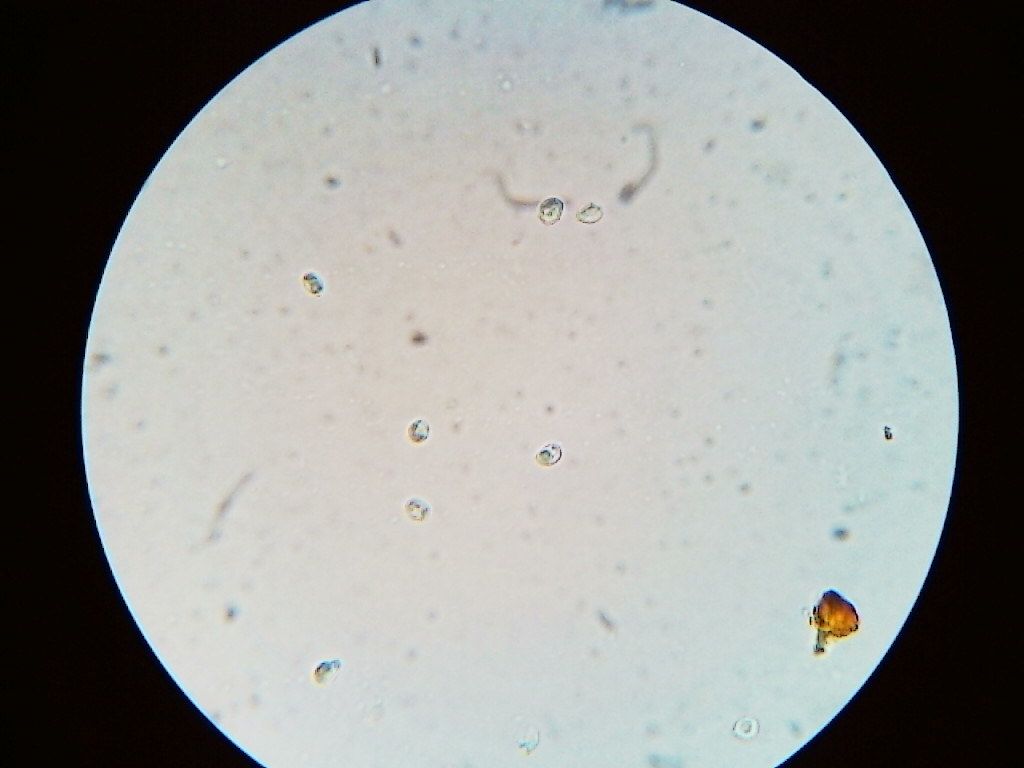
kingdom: Fungi
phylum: Basidiomycota
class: Agaricomycetes
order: Agaricales
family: Callistosporiaceae
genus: Callistosporium
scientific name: Callistosporium pseudofelleum
